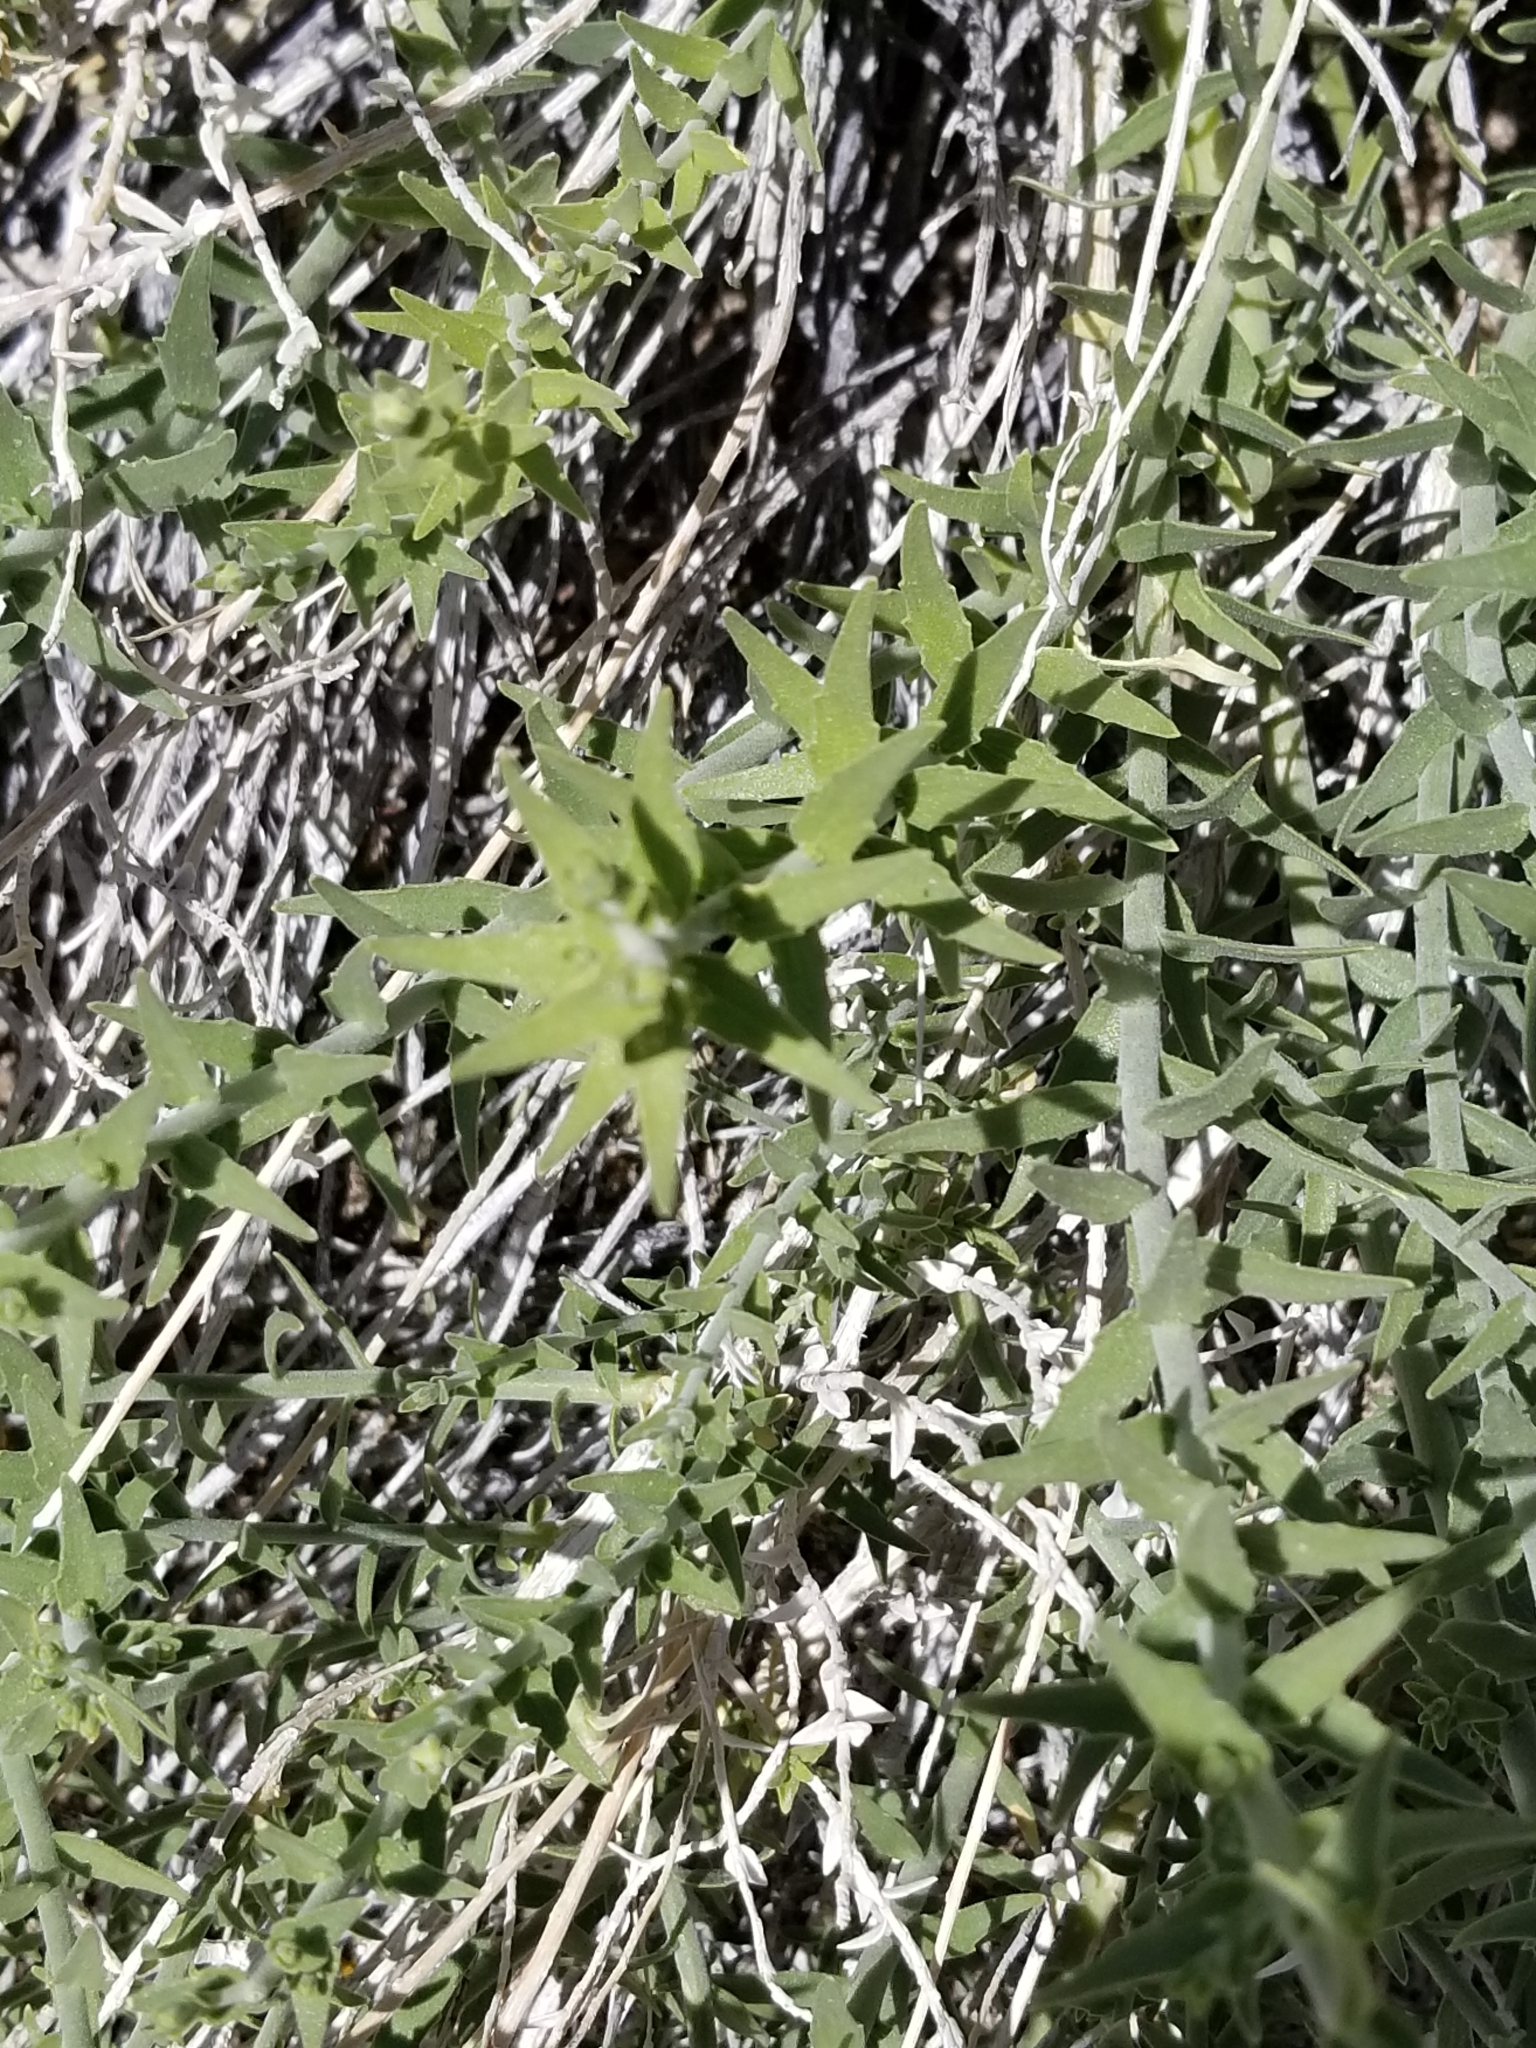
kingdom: Plantae
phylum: Tracheophyta
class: Magnoliopsida
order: Cornales
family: Loasaceae
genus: Petalonyx
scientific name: Petalonyx thurberi
